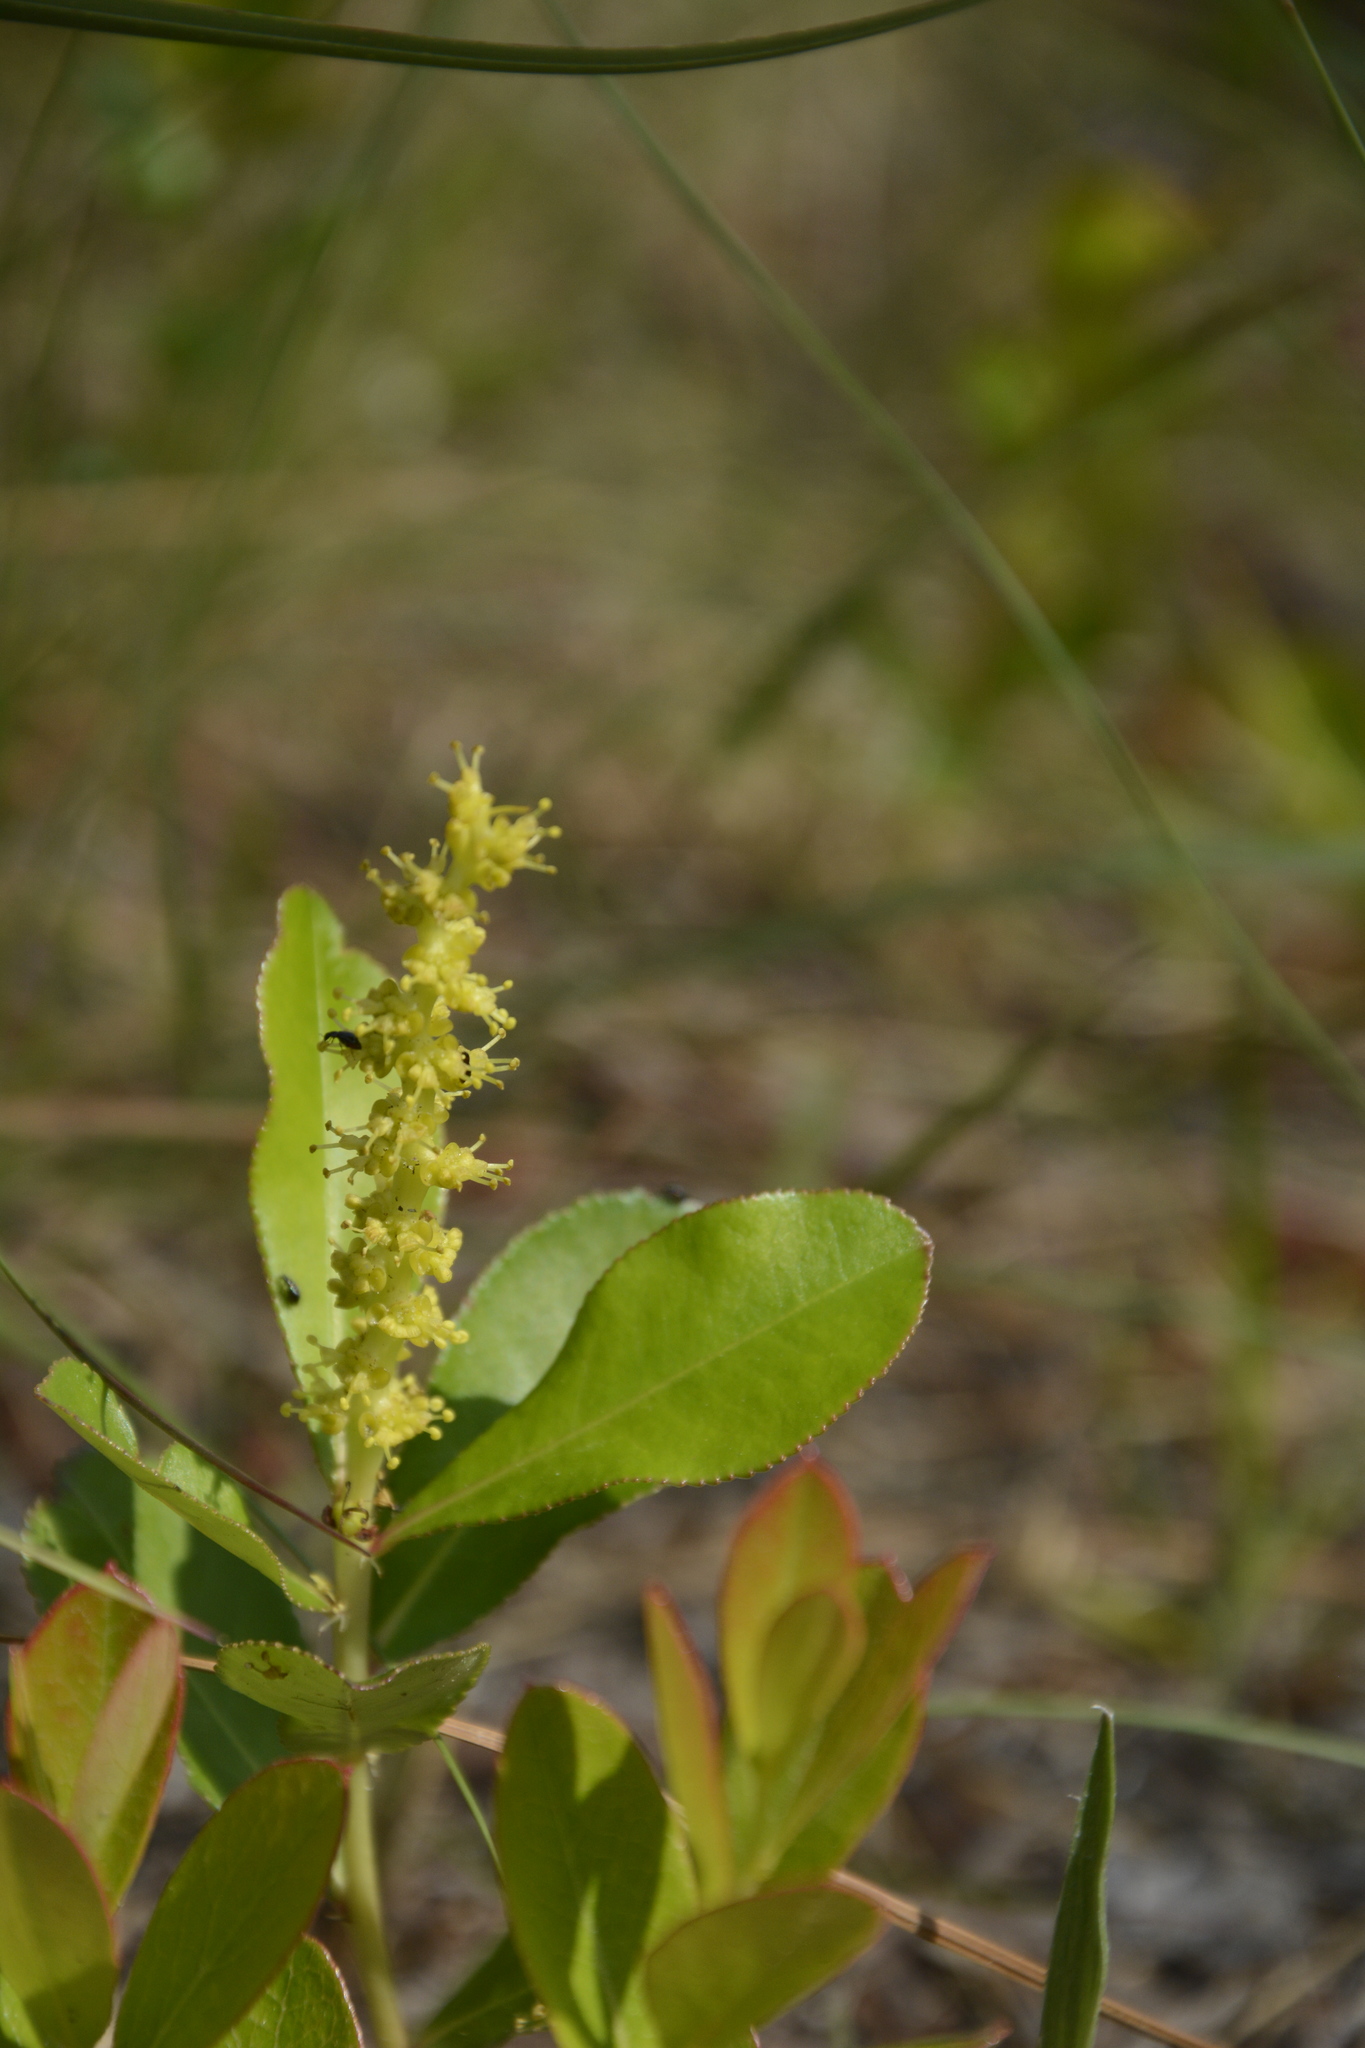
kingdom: Plantae
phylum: Tracheophyta
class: Magnoliopsida
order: Malpighiales
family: Euphorbiaceae
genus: Stillingia
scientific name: Stillingia sylvatica
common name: Queen's-delight
